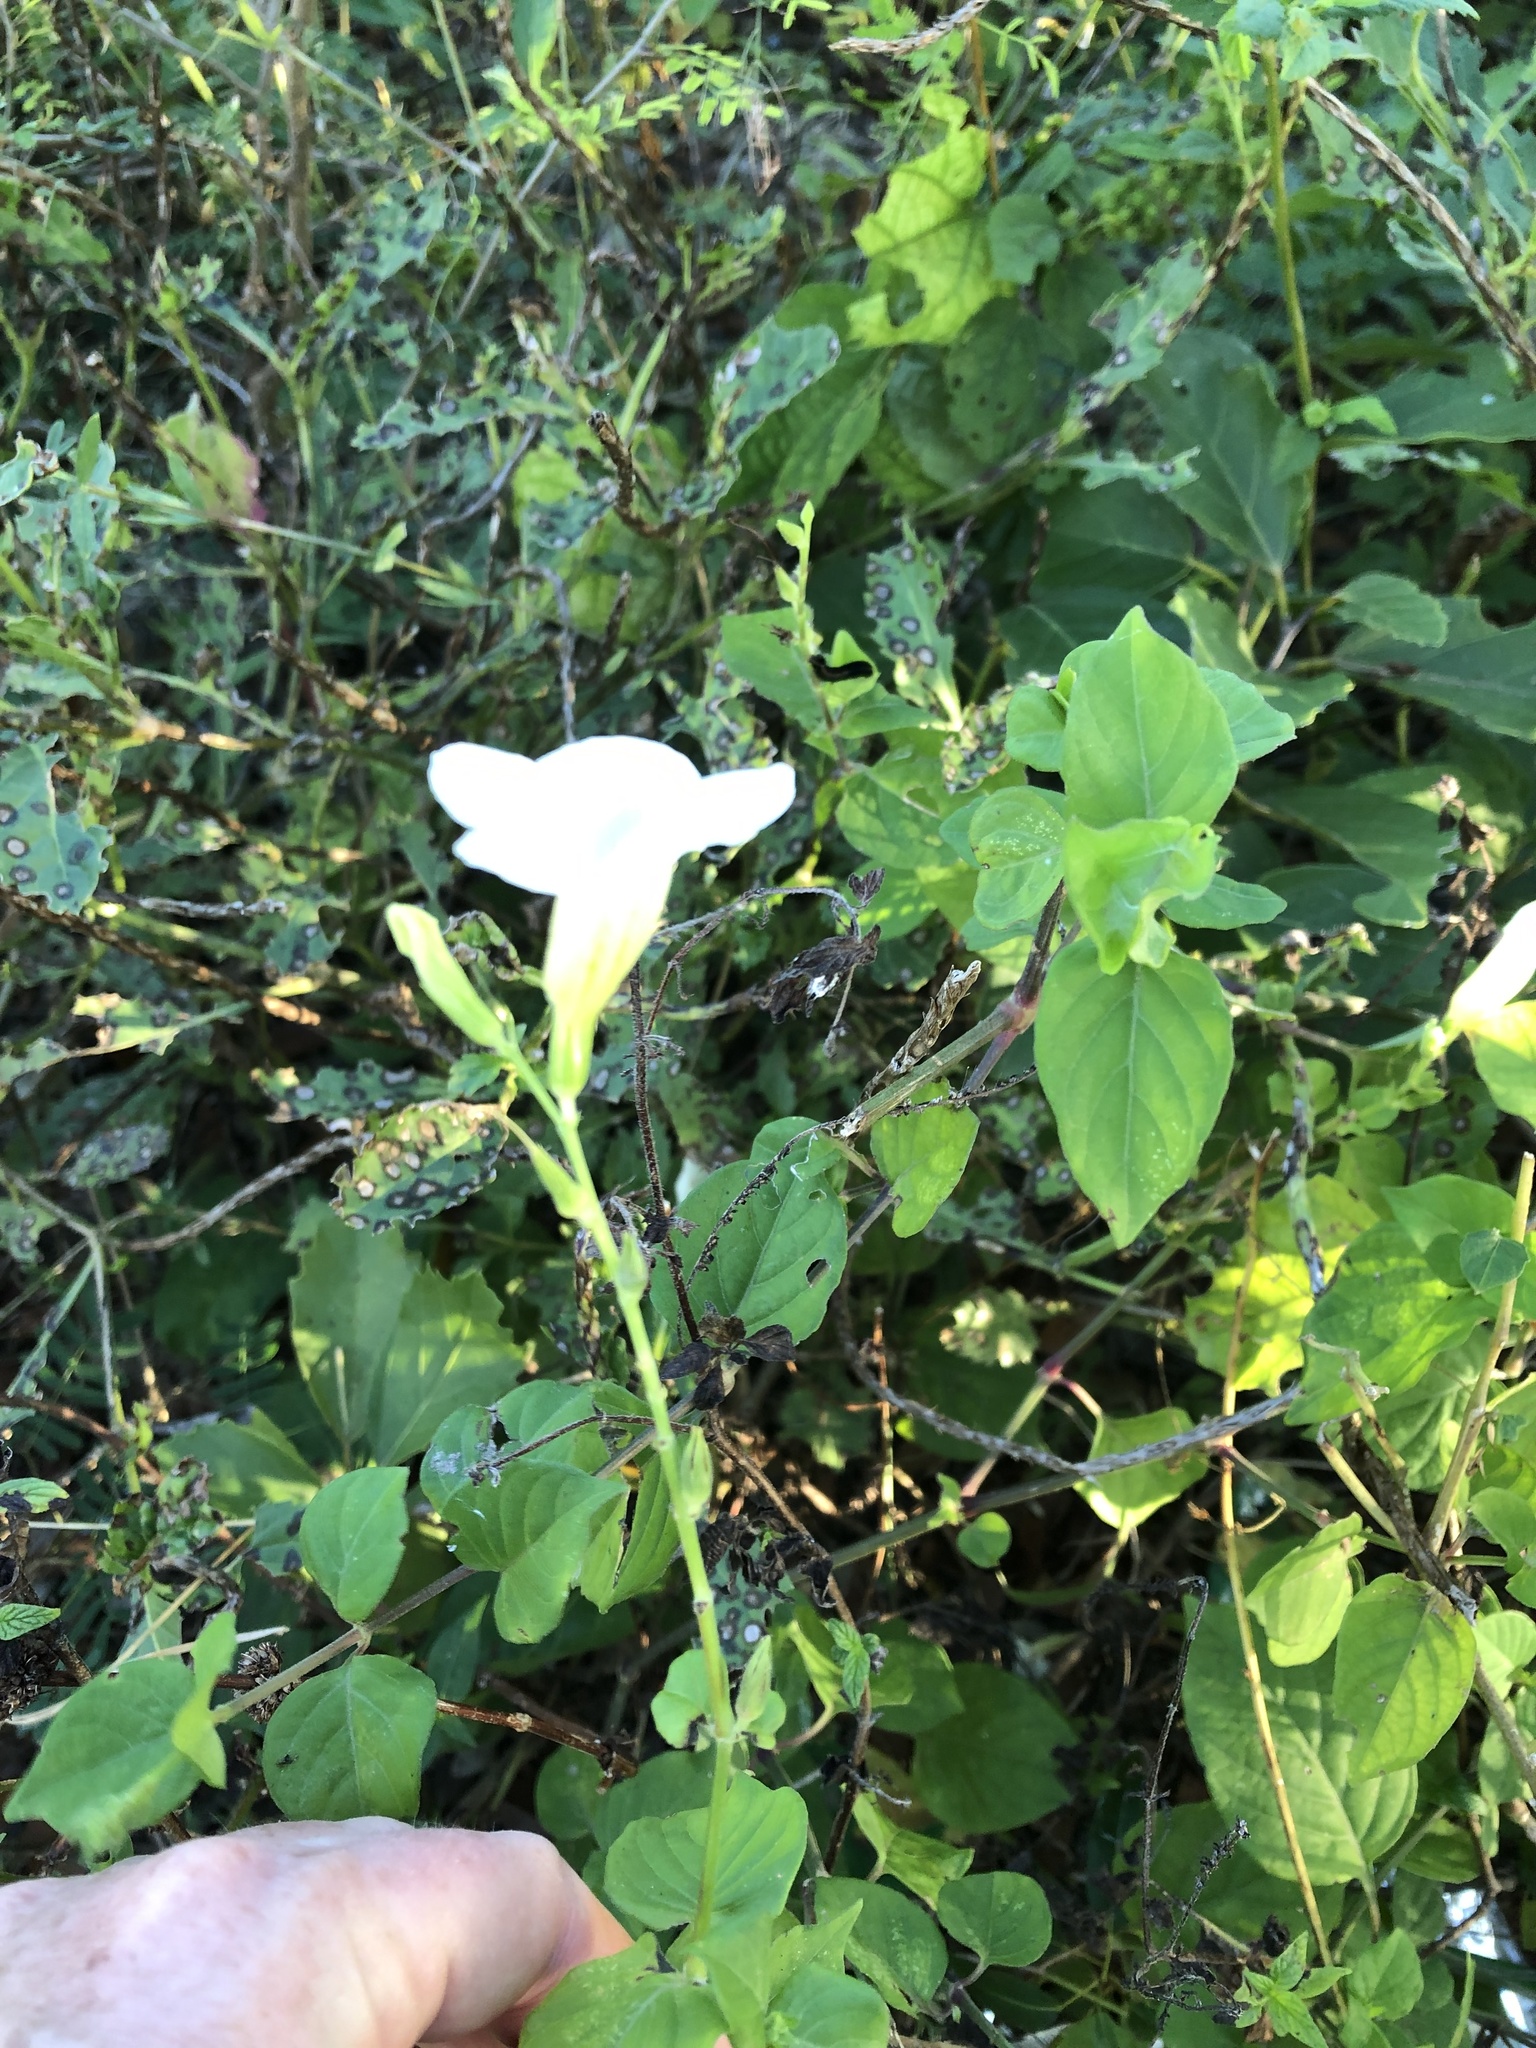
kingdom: Plantae
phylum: Tracheophyta
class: Magnoliopsida
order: Lamiales
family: Acanthaceae
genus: Asystasia
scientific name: Asystasia gangetica
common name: Chinese violet
